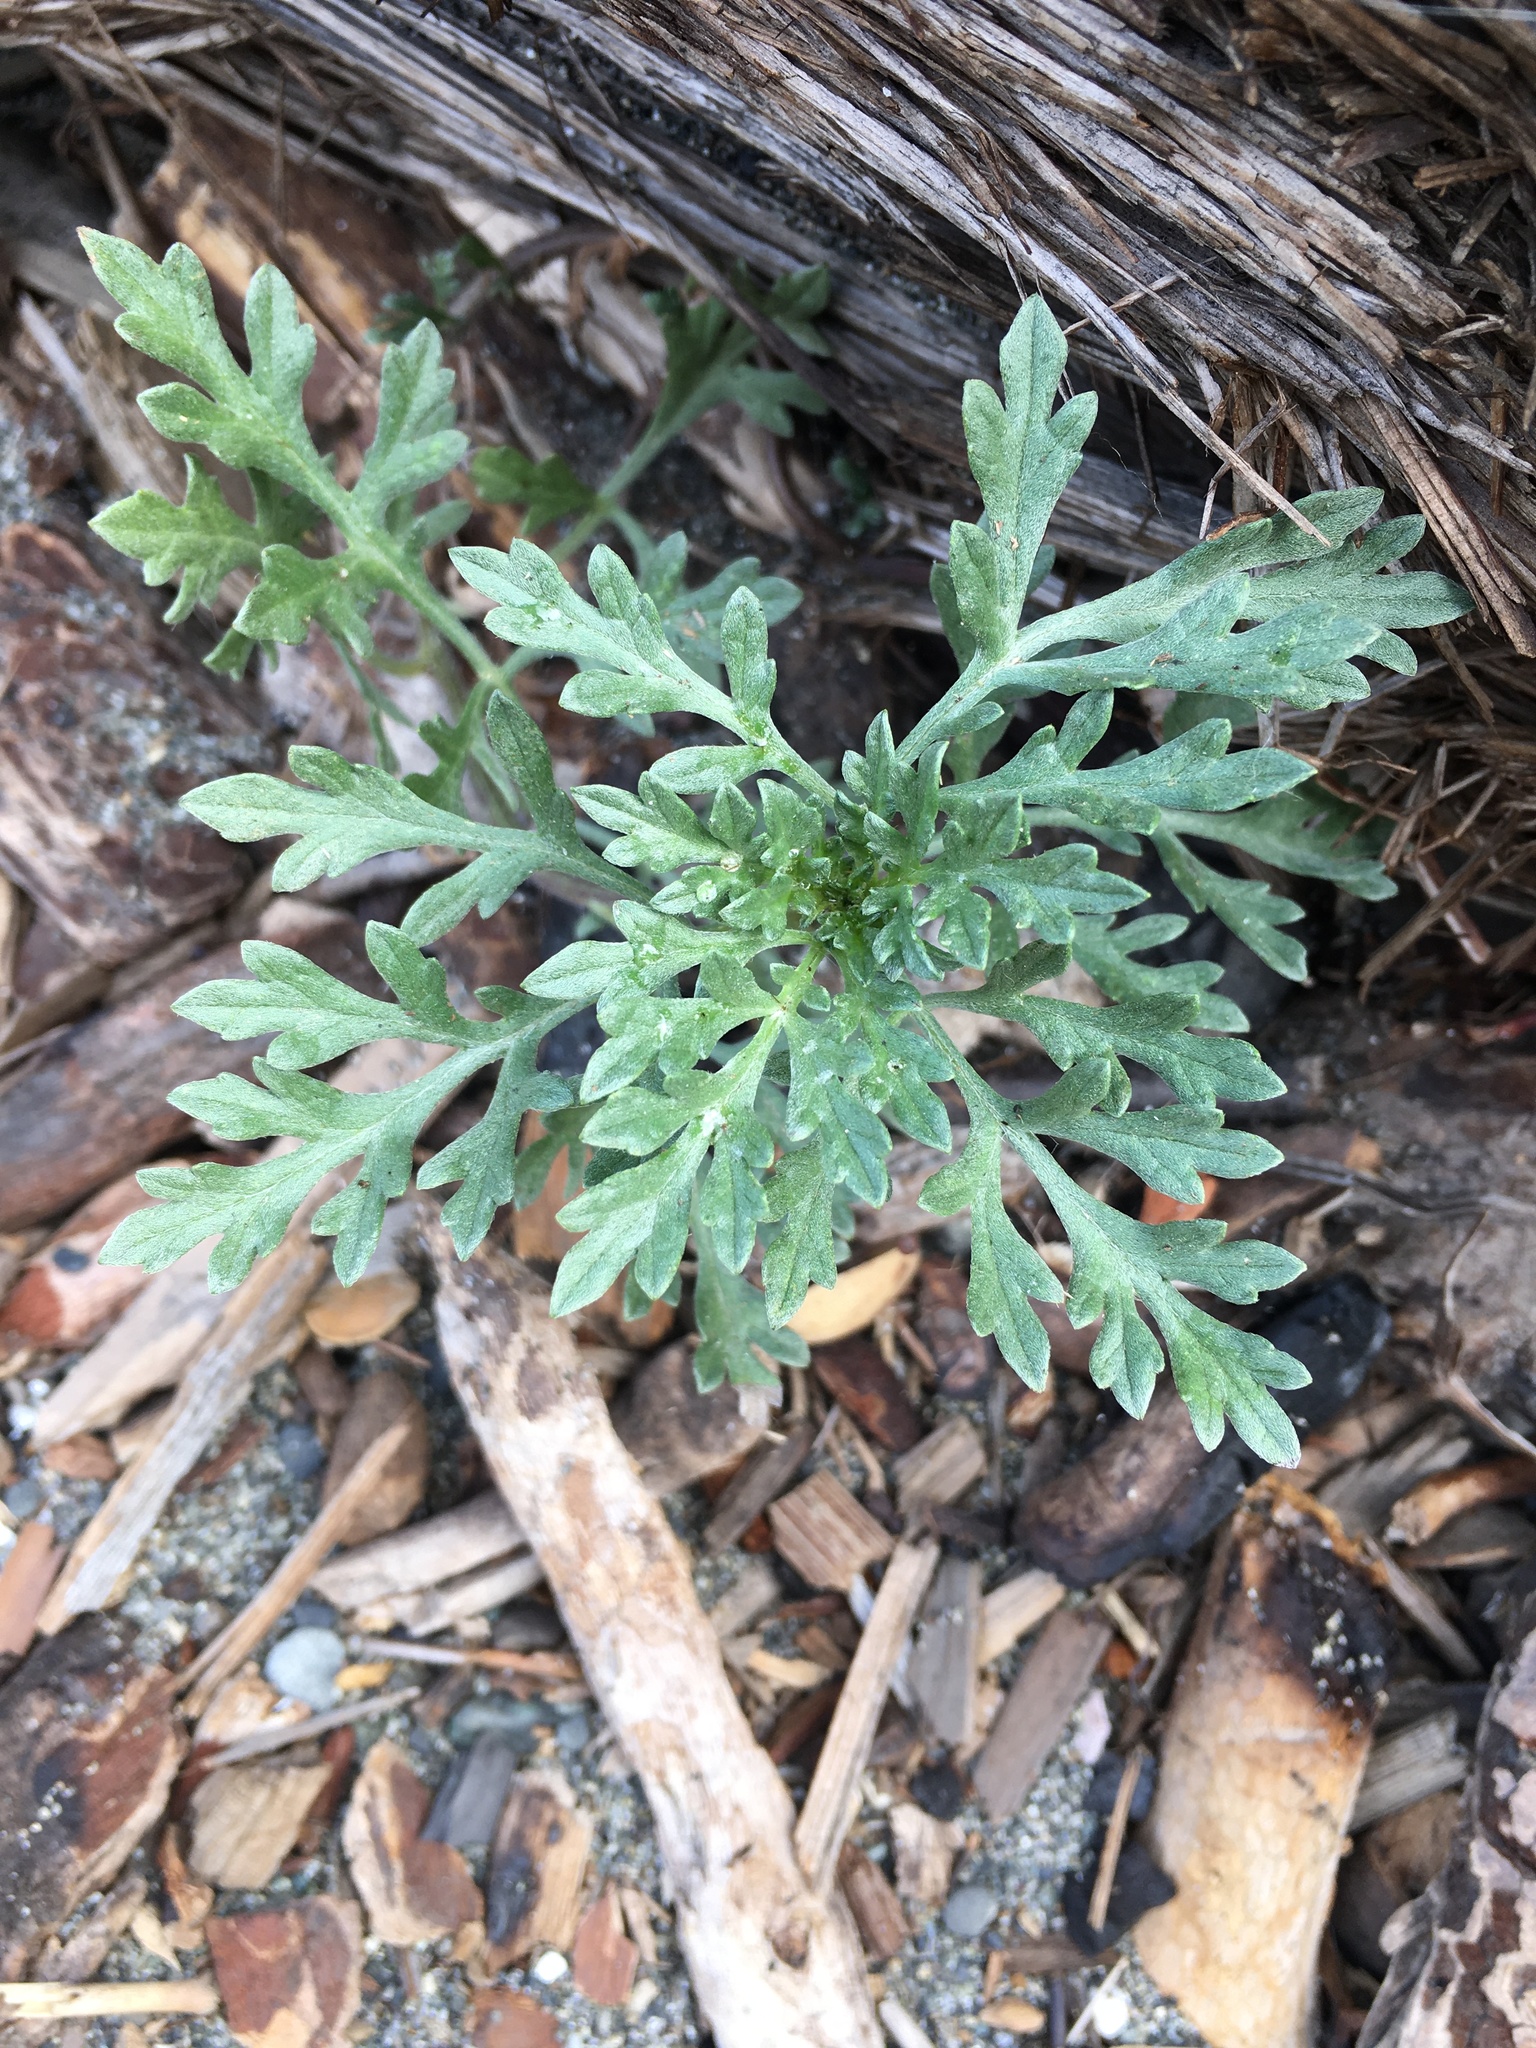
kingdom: Plantae
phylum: Tracheophyta
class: Magnoliopsida
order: Asterales
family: Asteraceae
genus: Ambrosia
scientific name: Ambrosia chamissonis
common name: Beachbur
